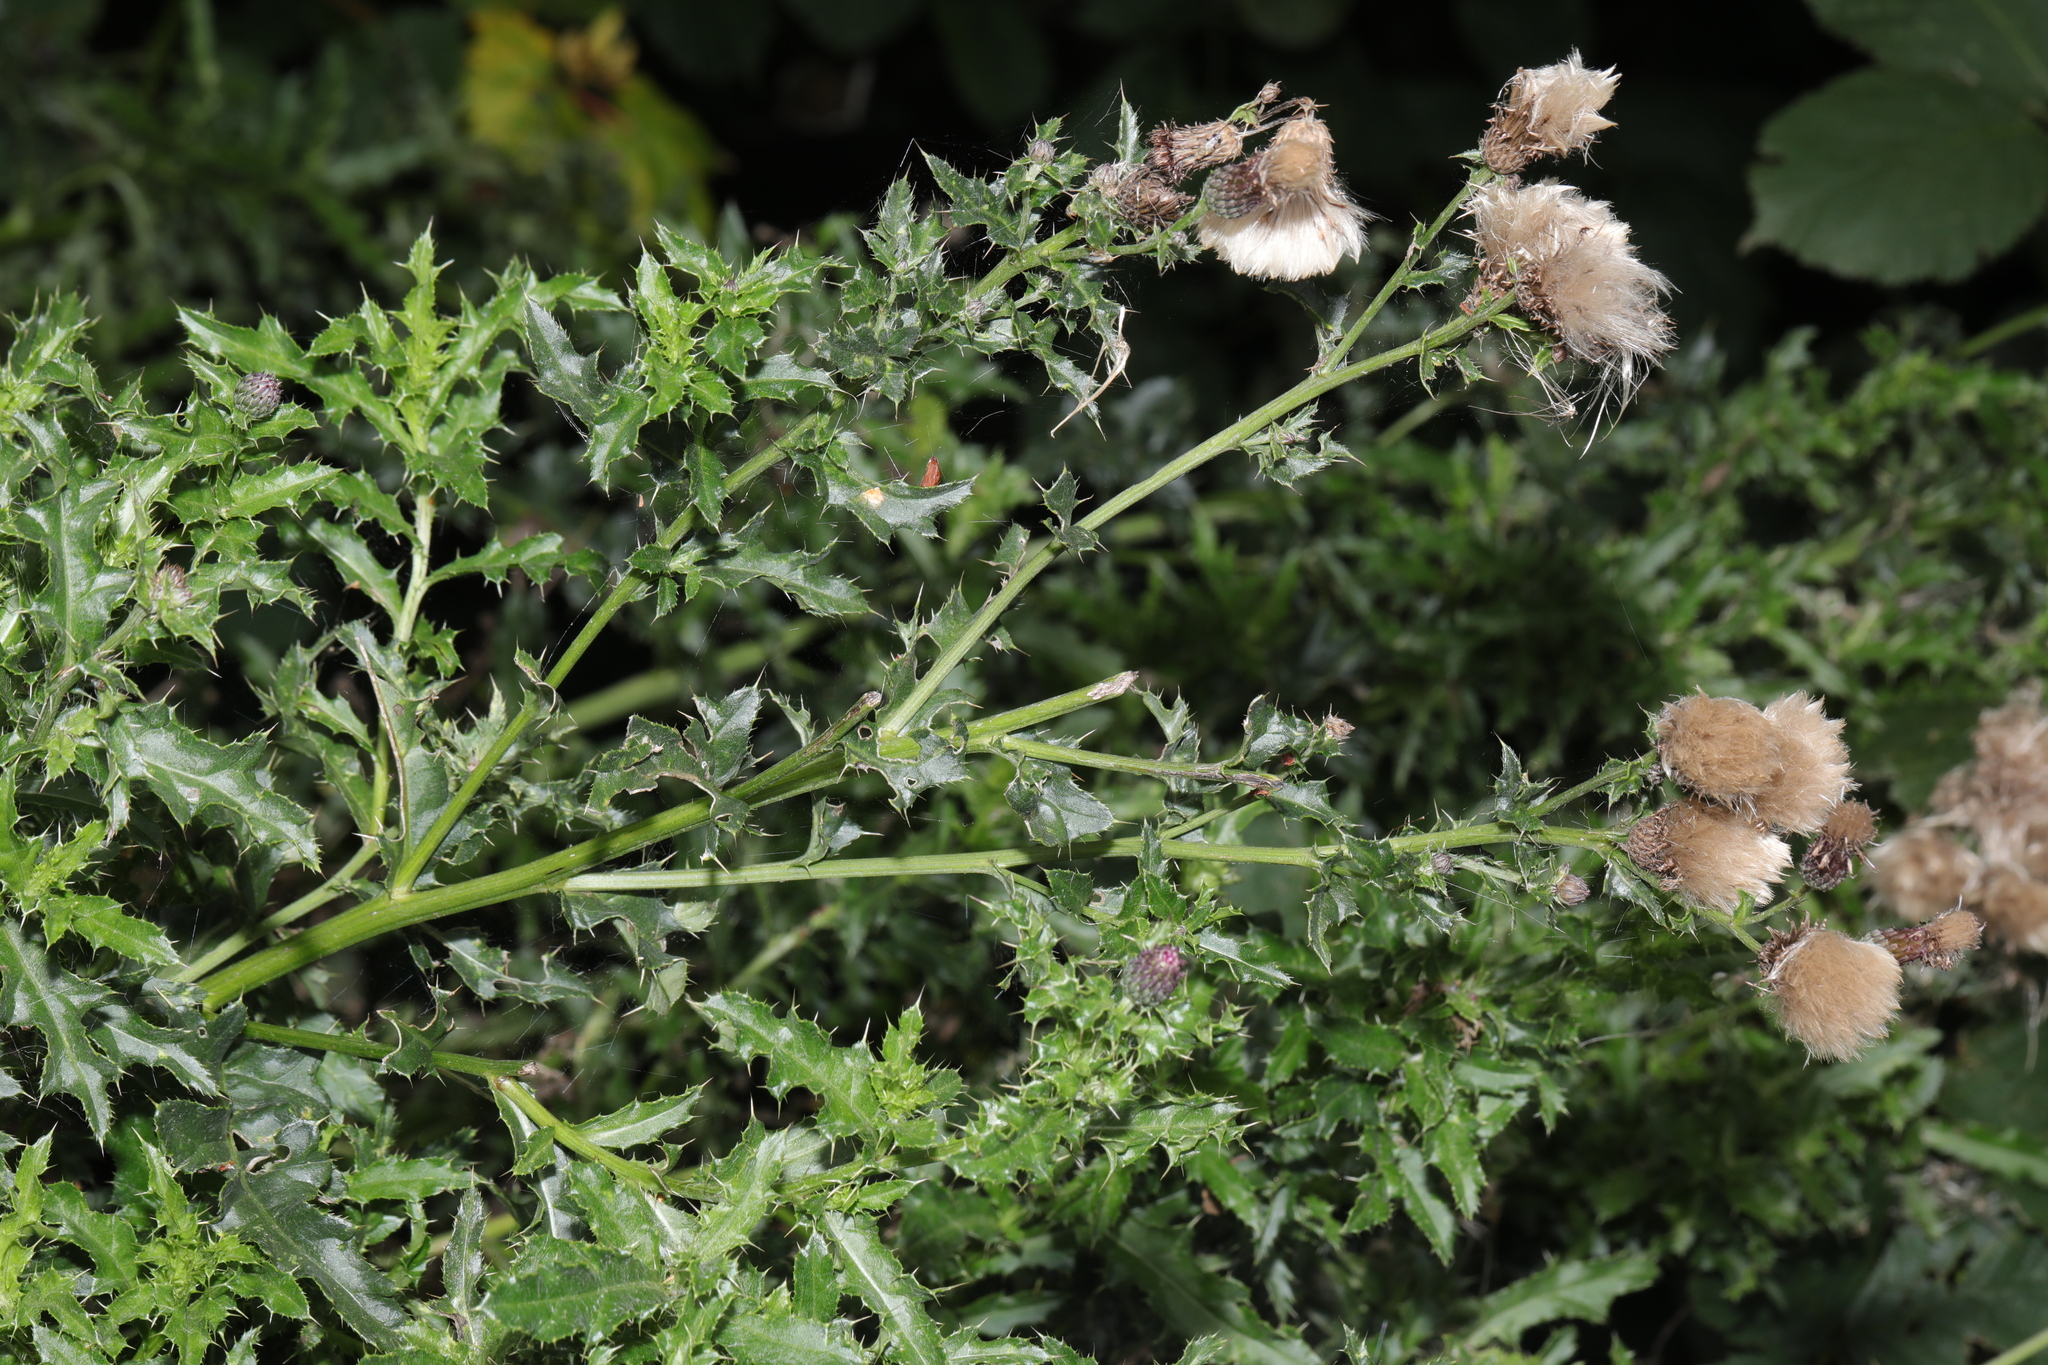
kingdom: Plantae
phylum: Tracheophyta
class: Magnoliopsida
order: Asterales
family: Asteraceae
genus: Cirsium
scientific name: Cirsium arvense
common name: Creeping thistle
